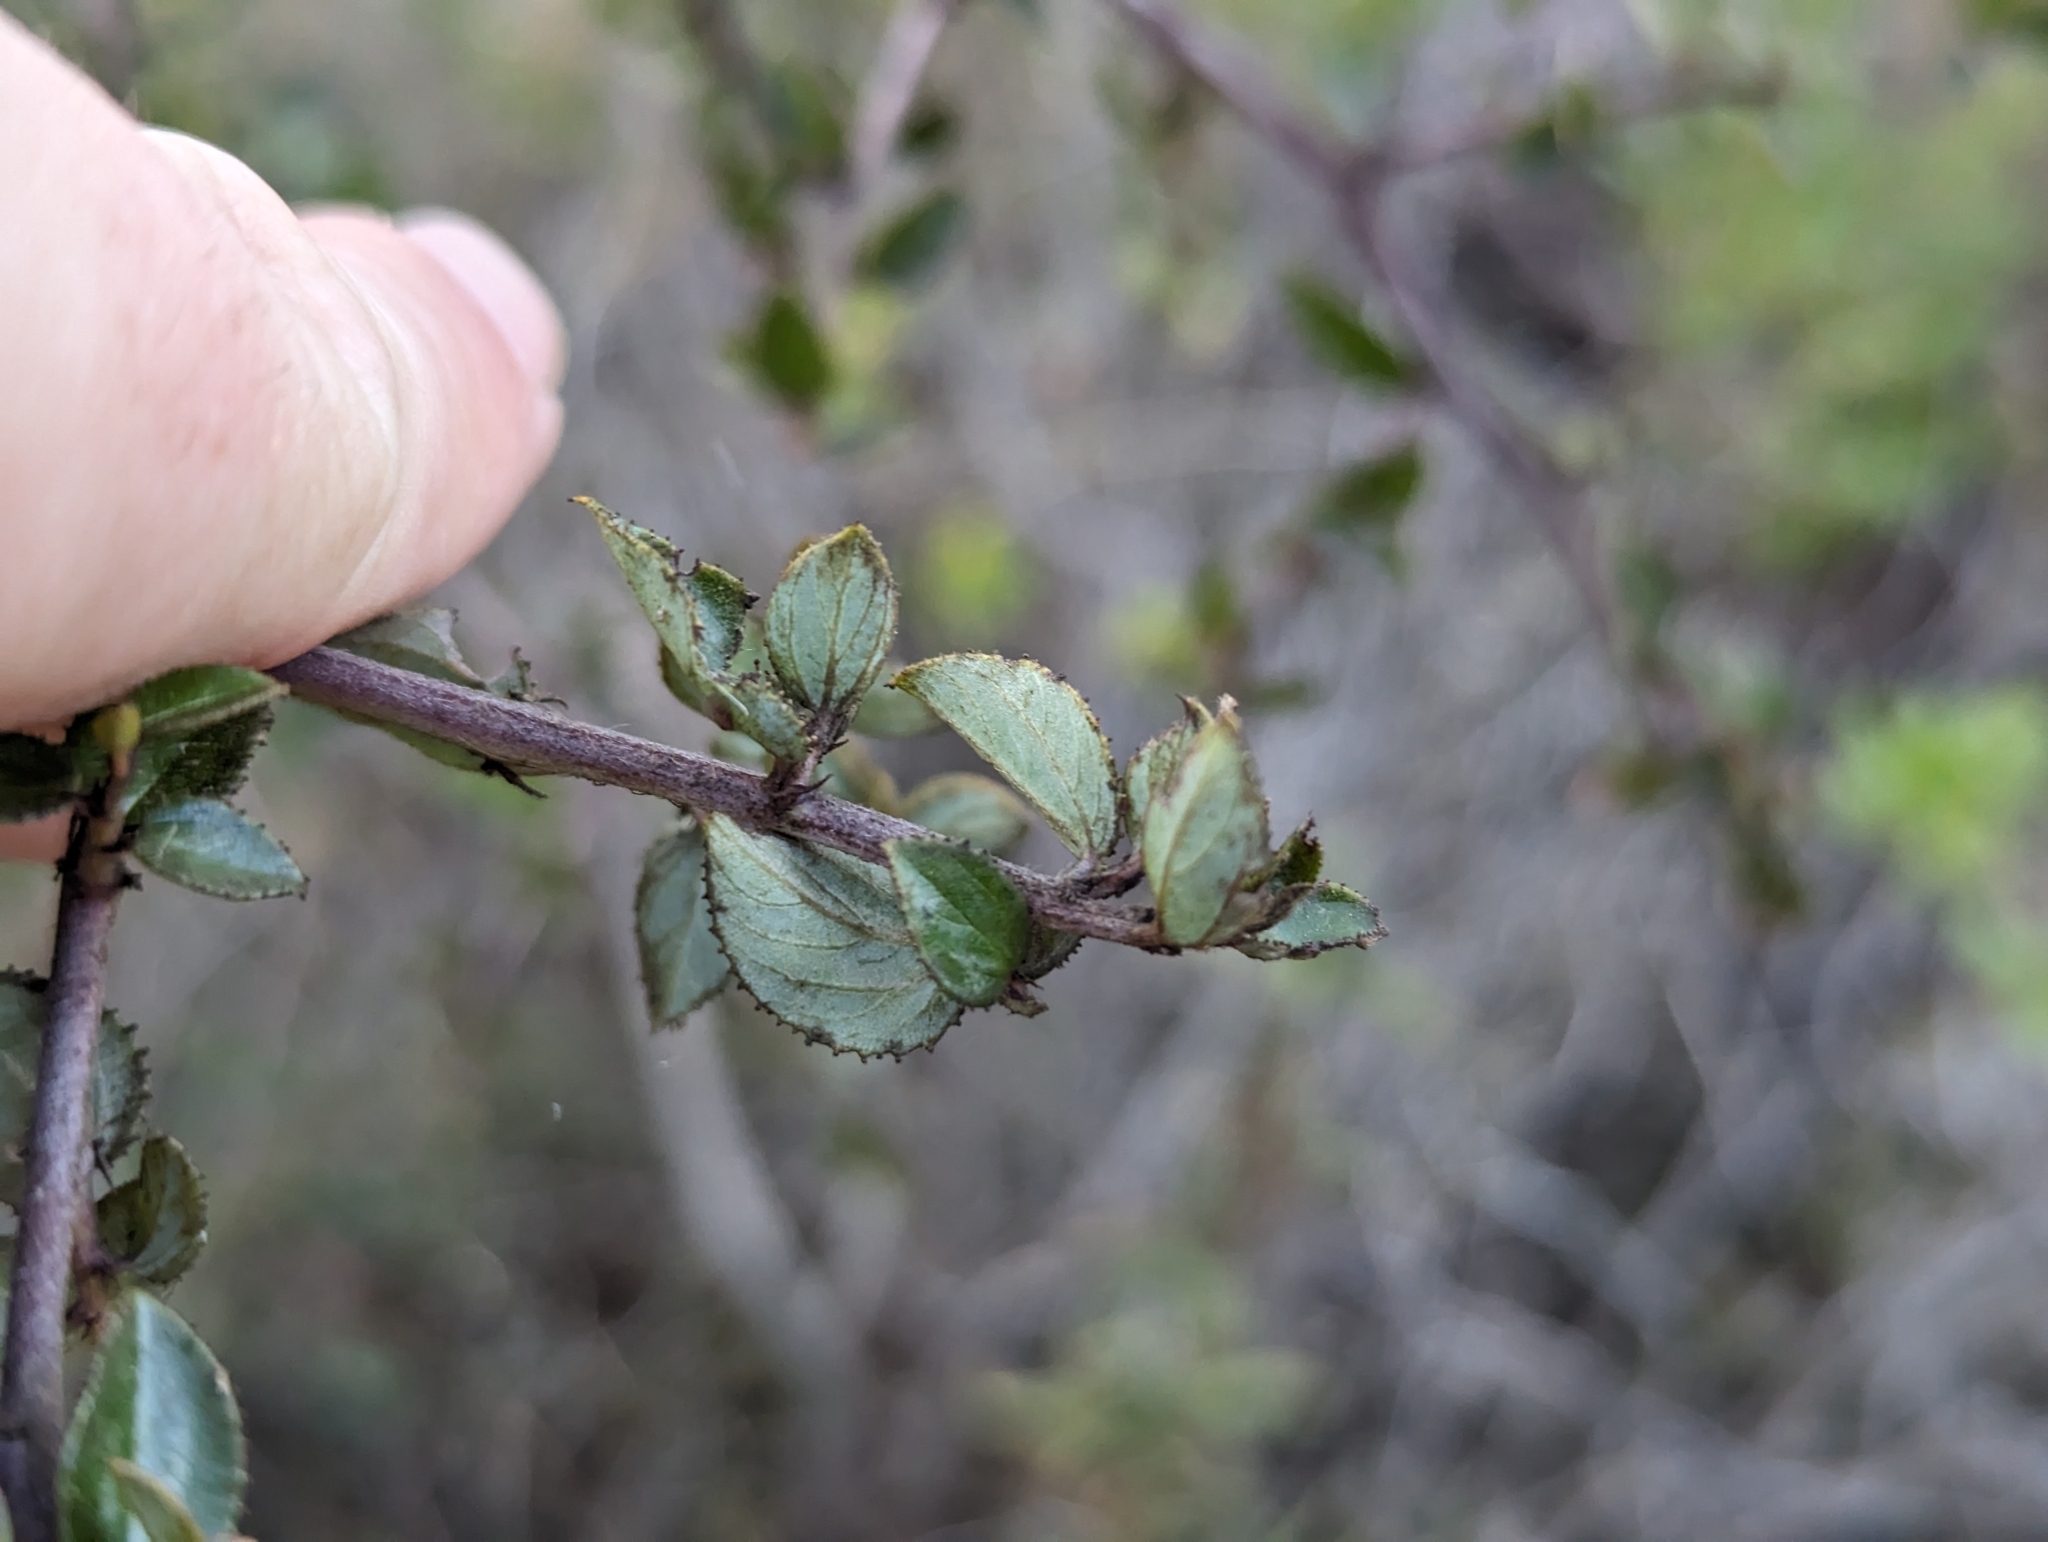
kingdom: Plantae
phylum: Tracheophyta
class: Magnoliopsida
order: Rosales
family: Rhamnaceae
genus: Ceanothus
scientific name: Ceanothus oliganthus
